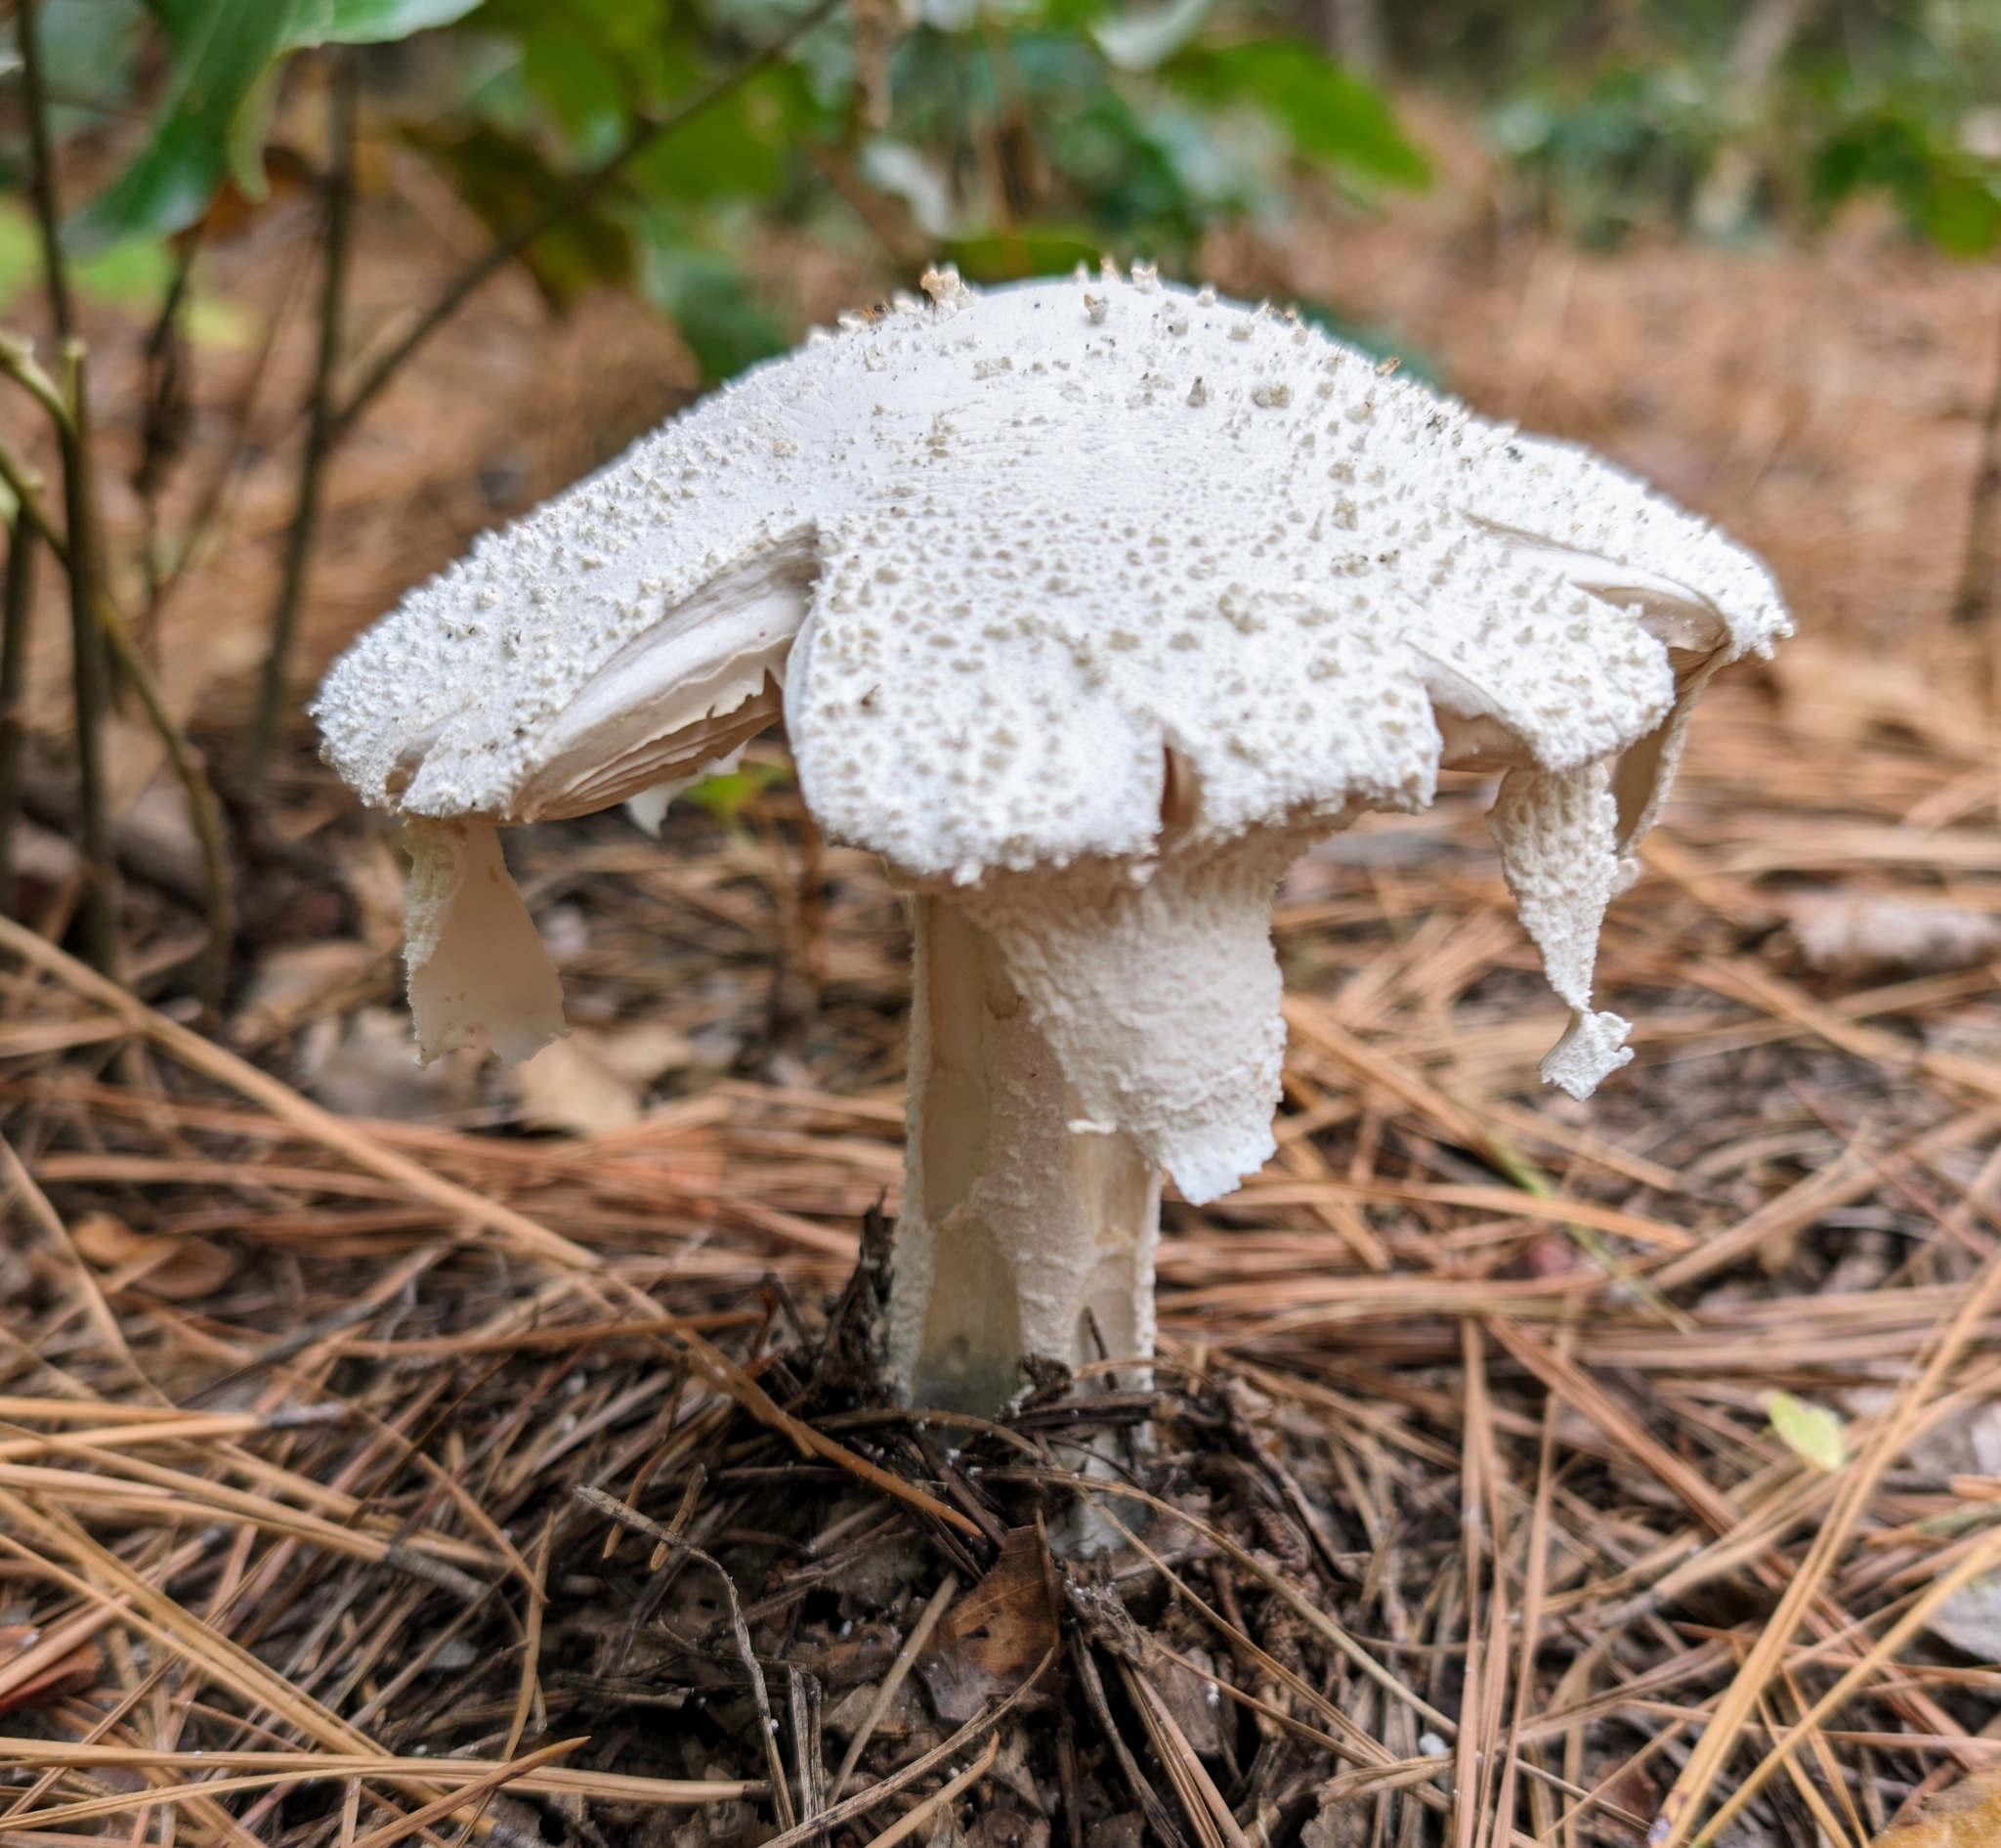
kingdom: Fungi
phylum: Basidiomycota
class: Agaricomycetes
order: Agaricales
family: Amanitaceae
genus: Amanita
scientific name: Amanita polypyramis
